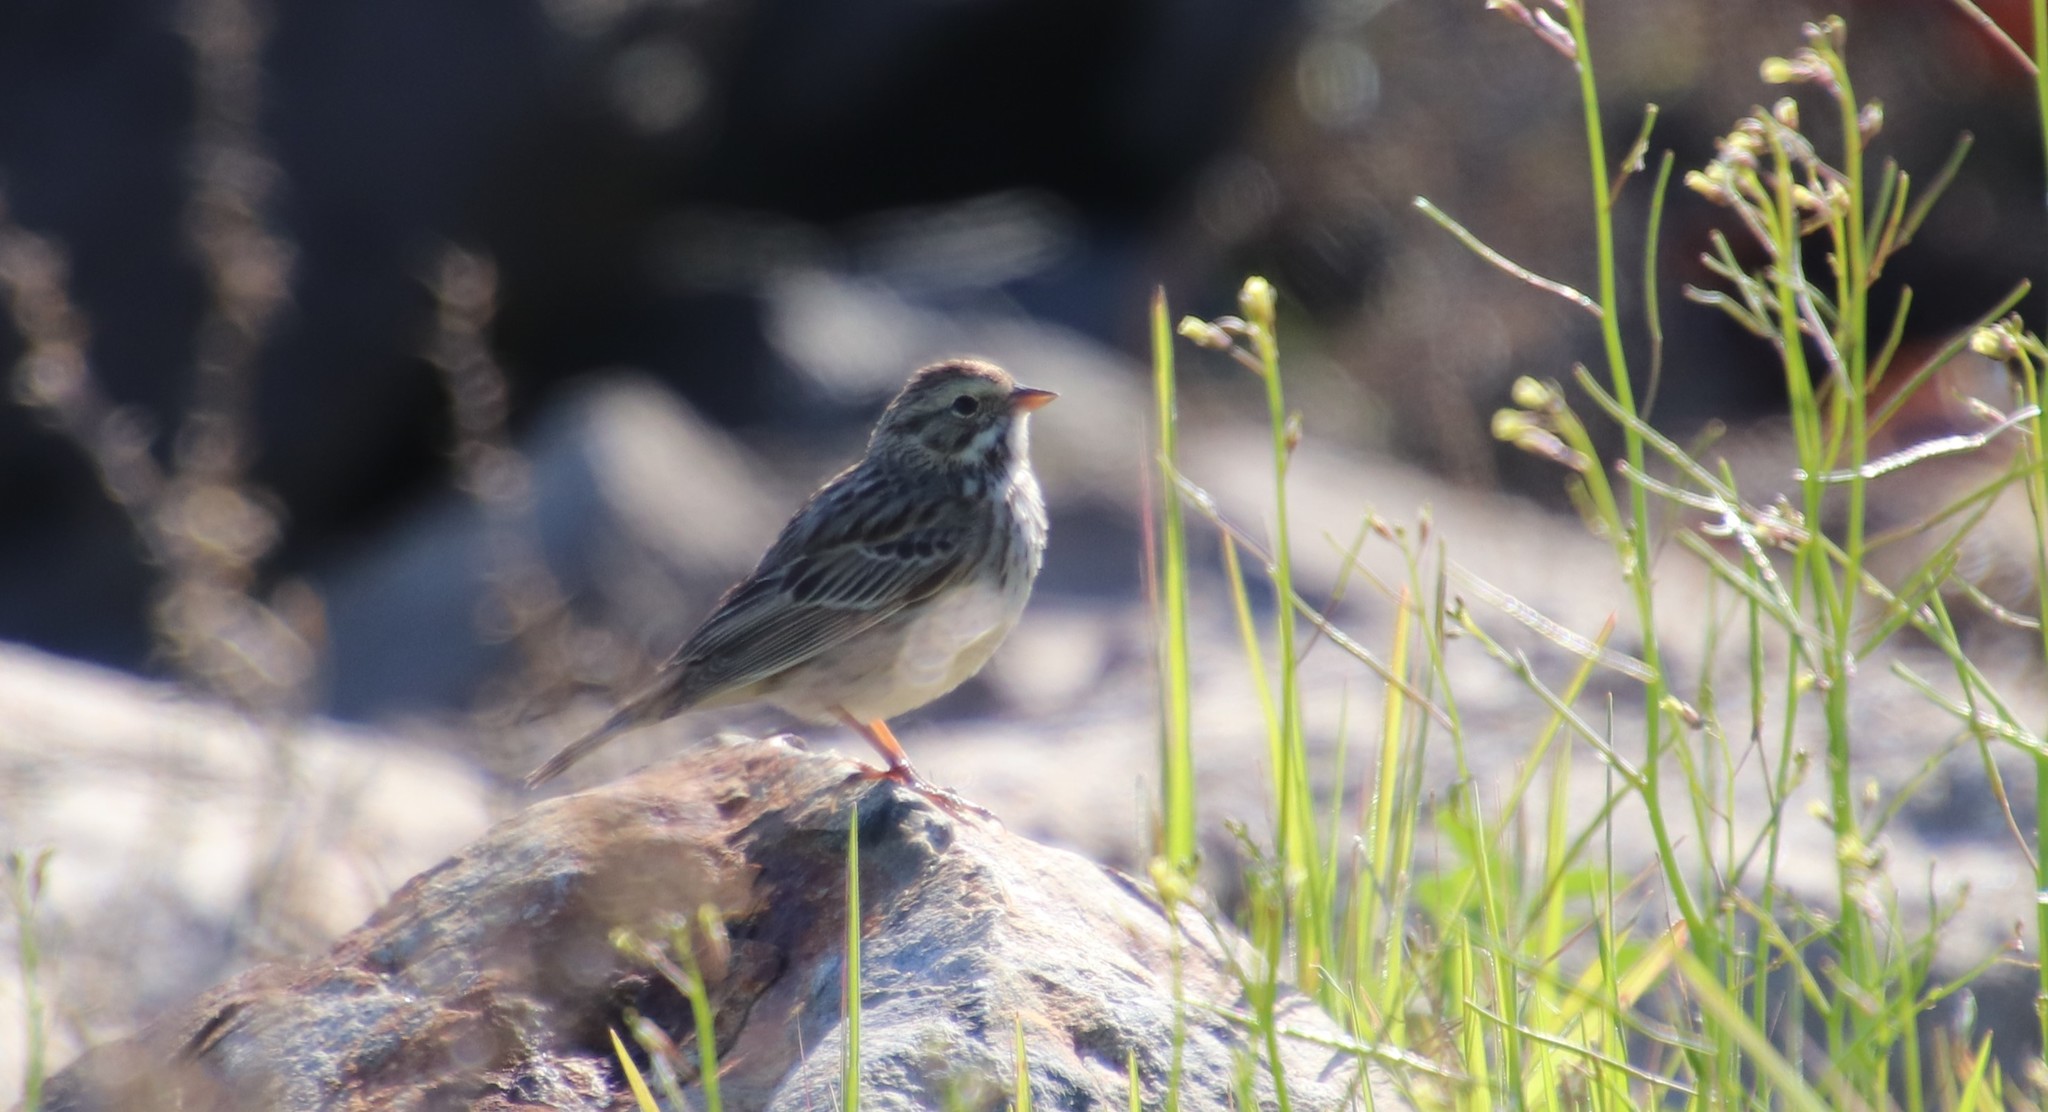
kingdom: Animalia
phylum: Chordata
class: Aves
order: Passeriformes
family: Passerellidae
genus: Passerculus
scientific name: Passerculus sandwichensis
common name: Savannah sparrow
